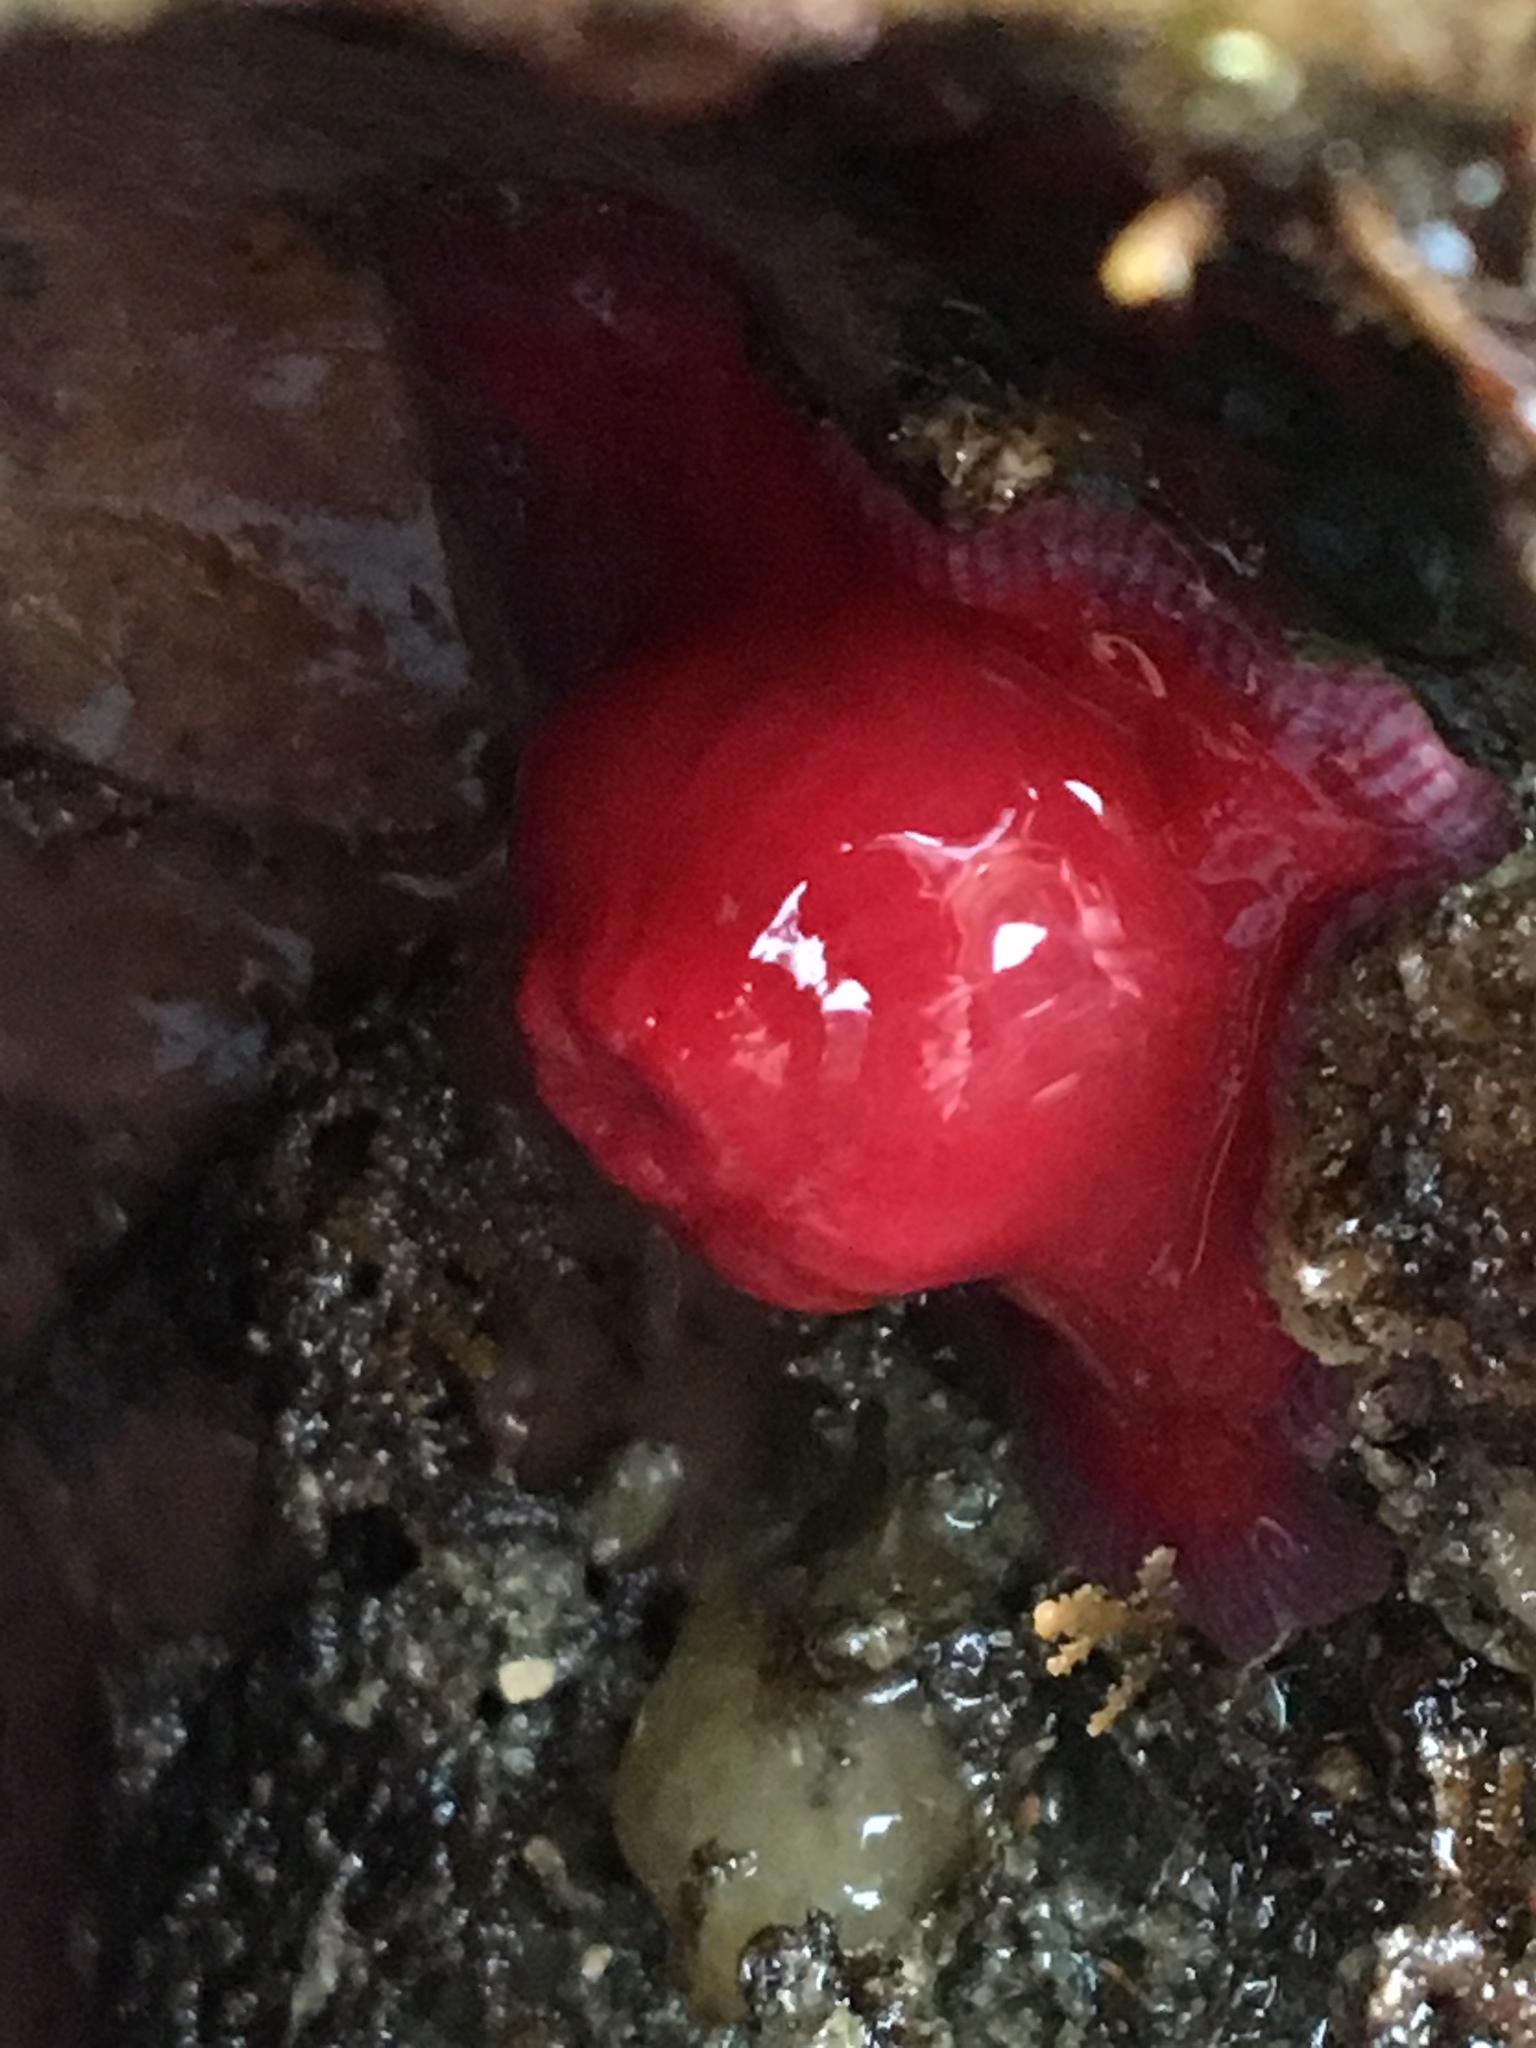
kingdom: Animalia
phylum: Cnidaria
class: Anthozoa
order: Actiniaria
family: Actiniidae
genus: Epiactis
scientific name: Epiactis prolifera
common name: Brooding anemone
